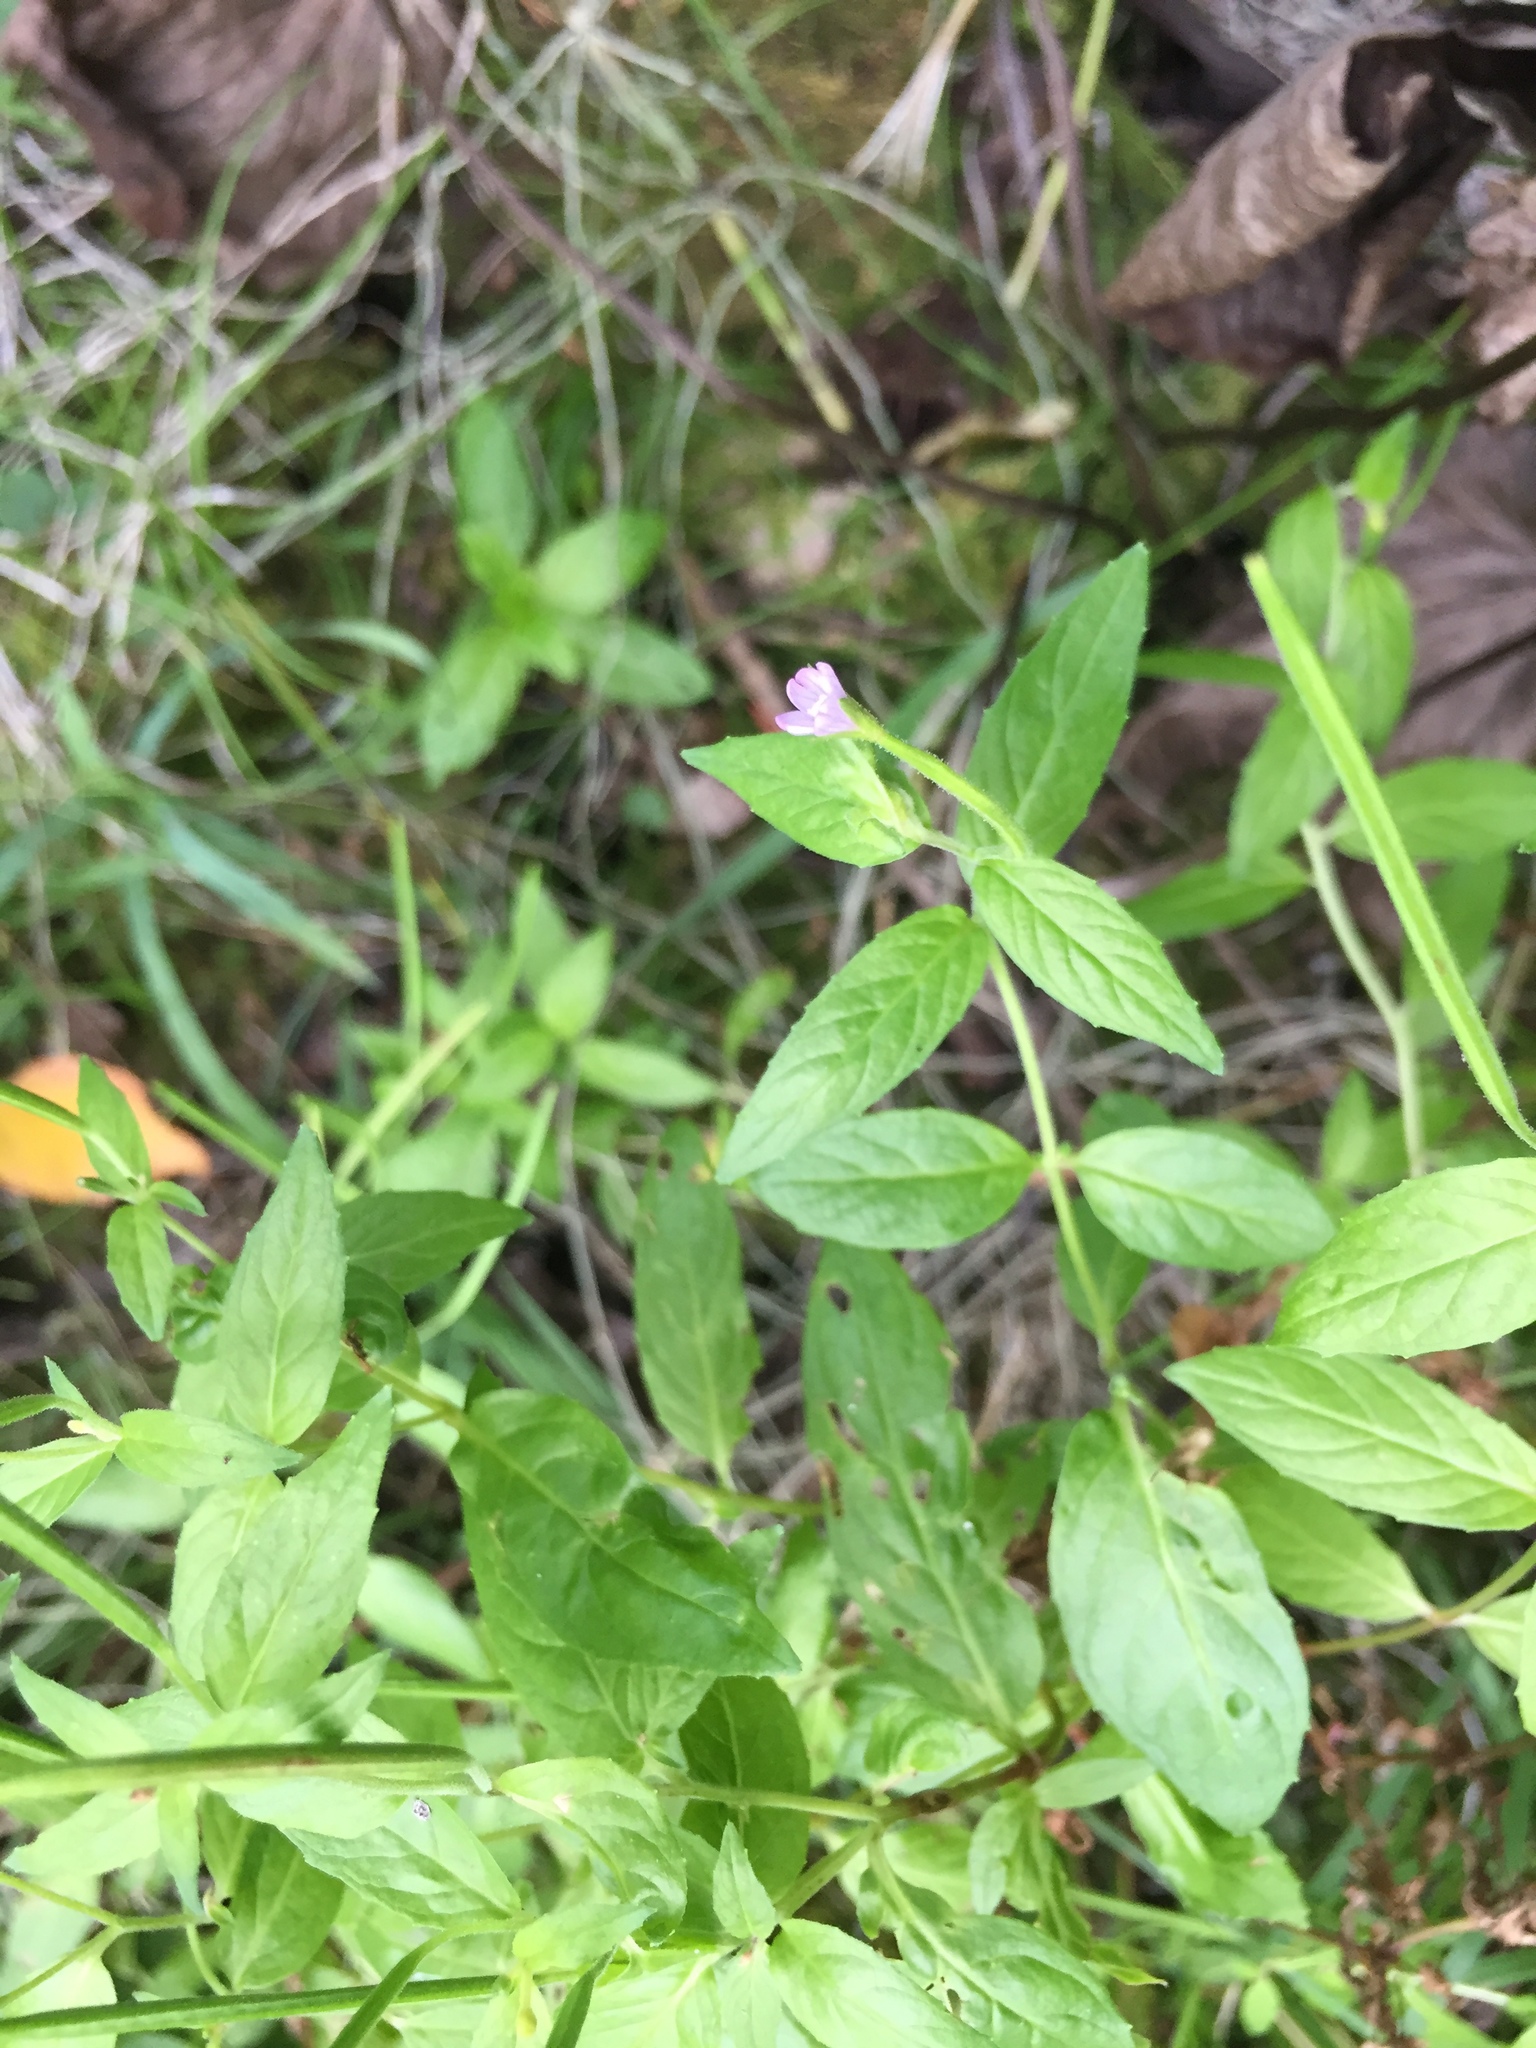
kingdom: Plantae
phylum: Tracheophyta
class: Magnoliopsida
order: Myrtales
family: Onagraceae
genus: Epilobium
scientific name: Epilobium ciliatum
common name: American willowherb
